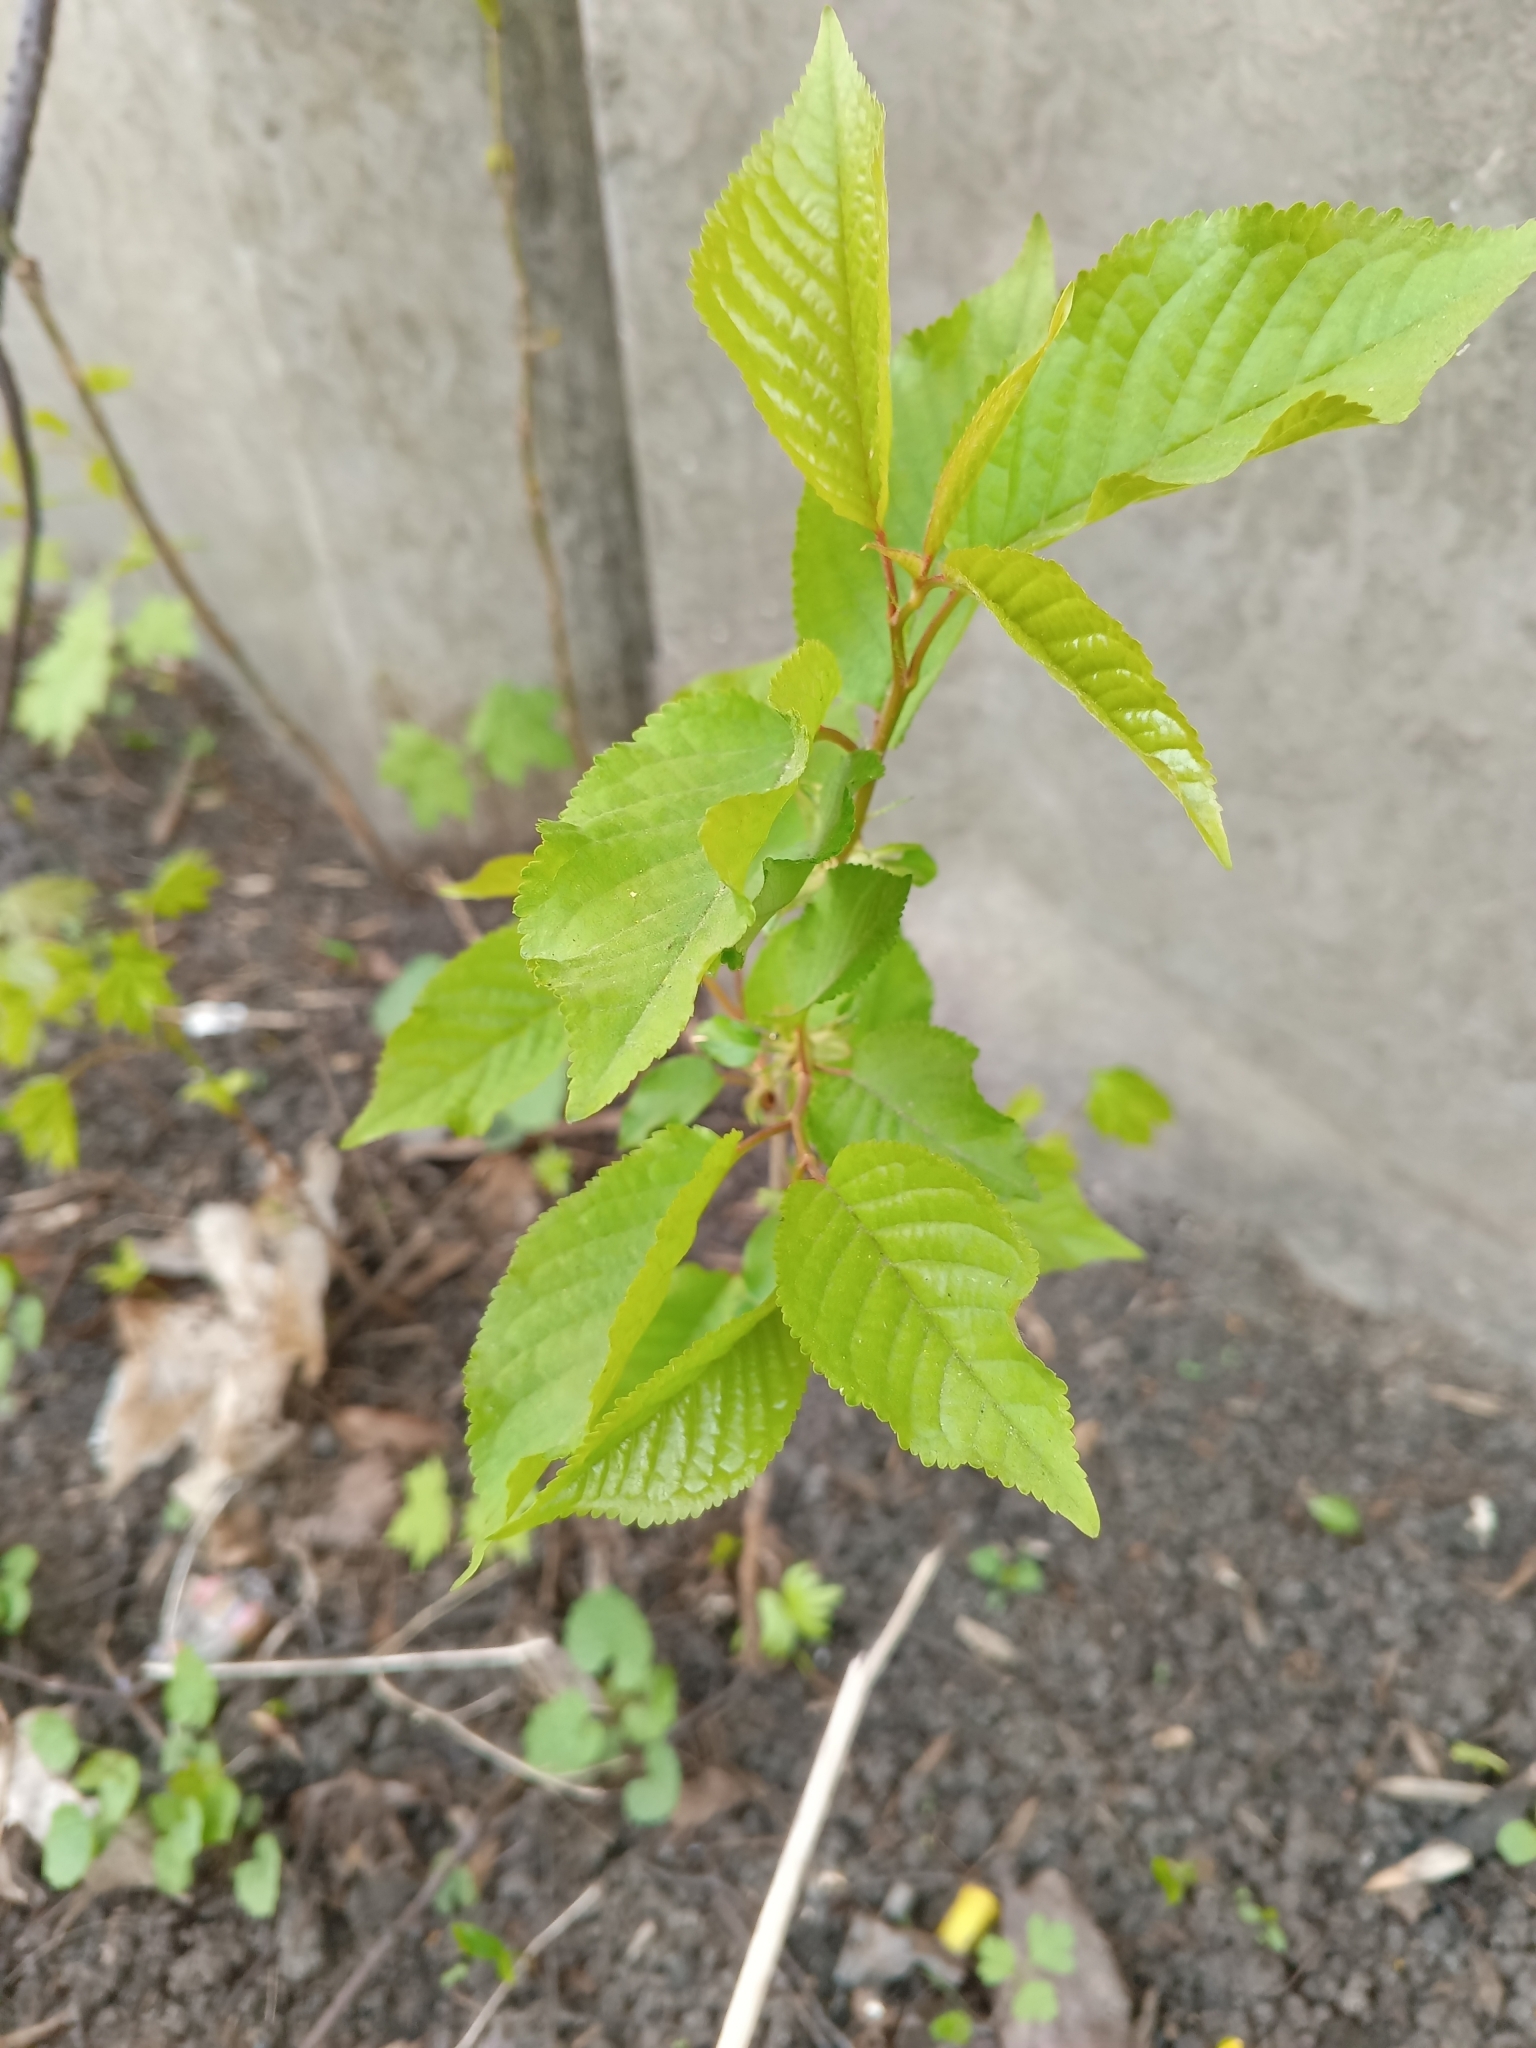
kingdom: Plantae
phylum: Tracheophyta
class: Magnoliopsida
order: Rosales
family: Rosaceae
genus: Prunus
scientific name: Prunus avium
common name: Sweet cherry
